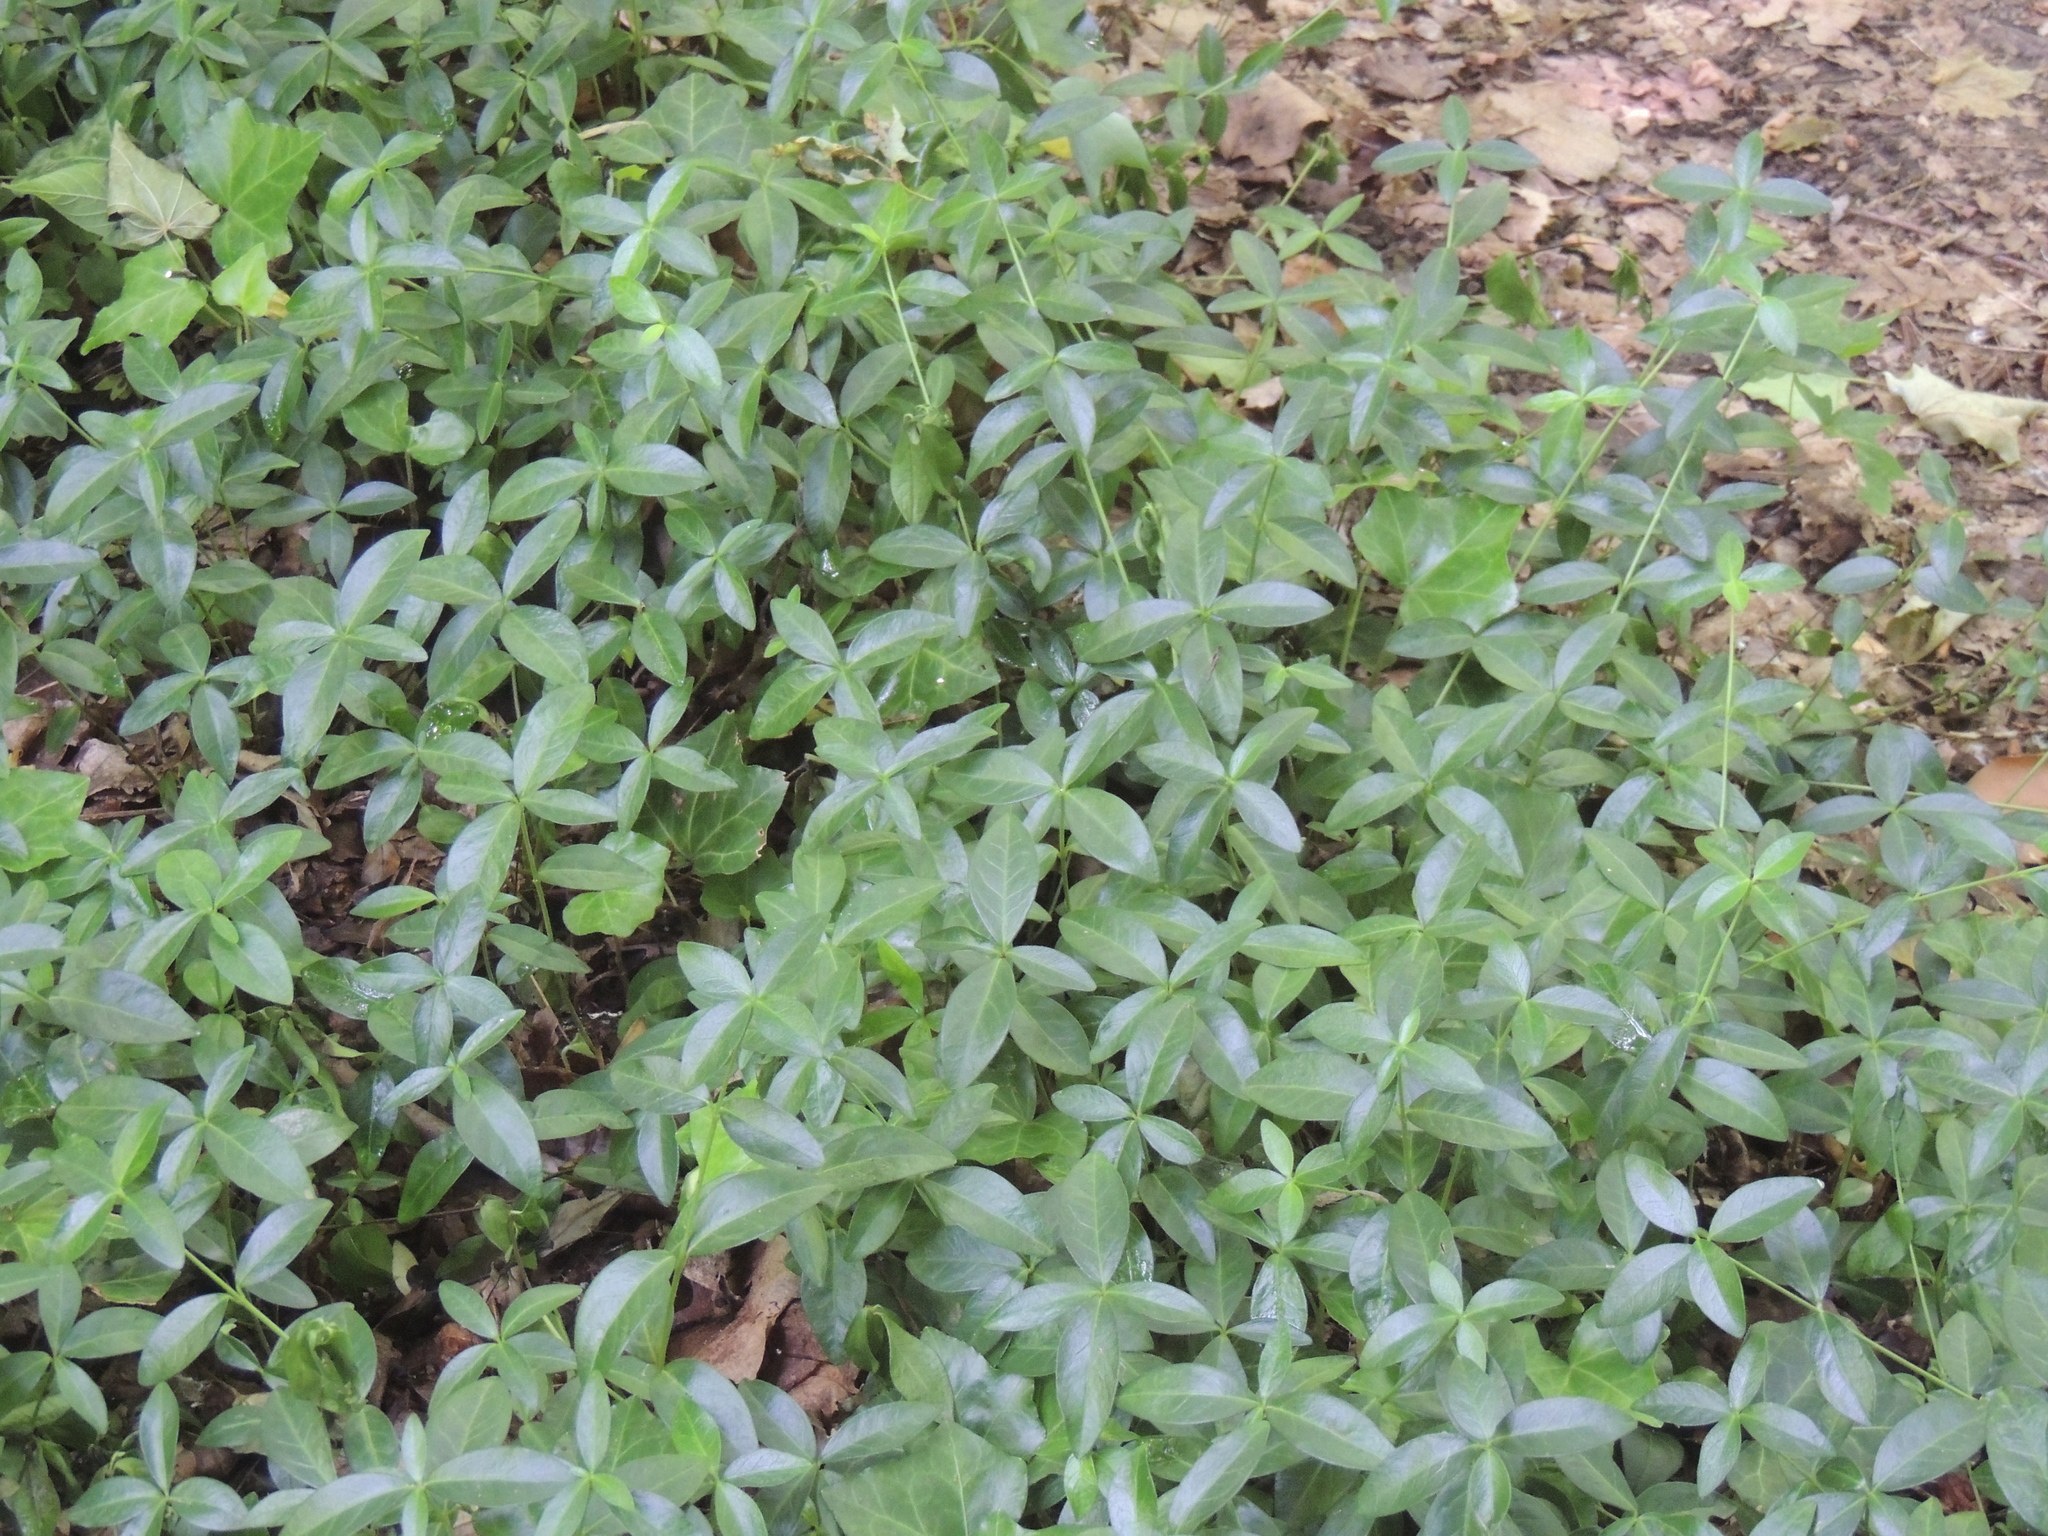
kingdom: Plantae
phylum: Tracheophyta
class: Magnoliopsida
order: Gentianales
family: Apocynaceae
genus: Vinca
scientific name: Vinca minor
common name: Lesser periwinkle
